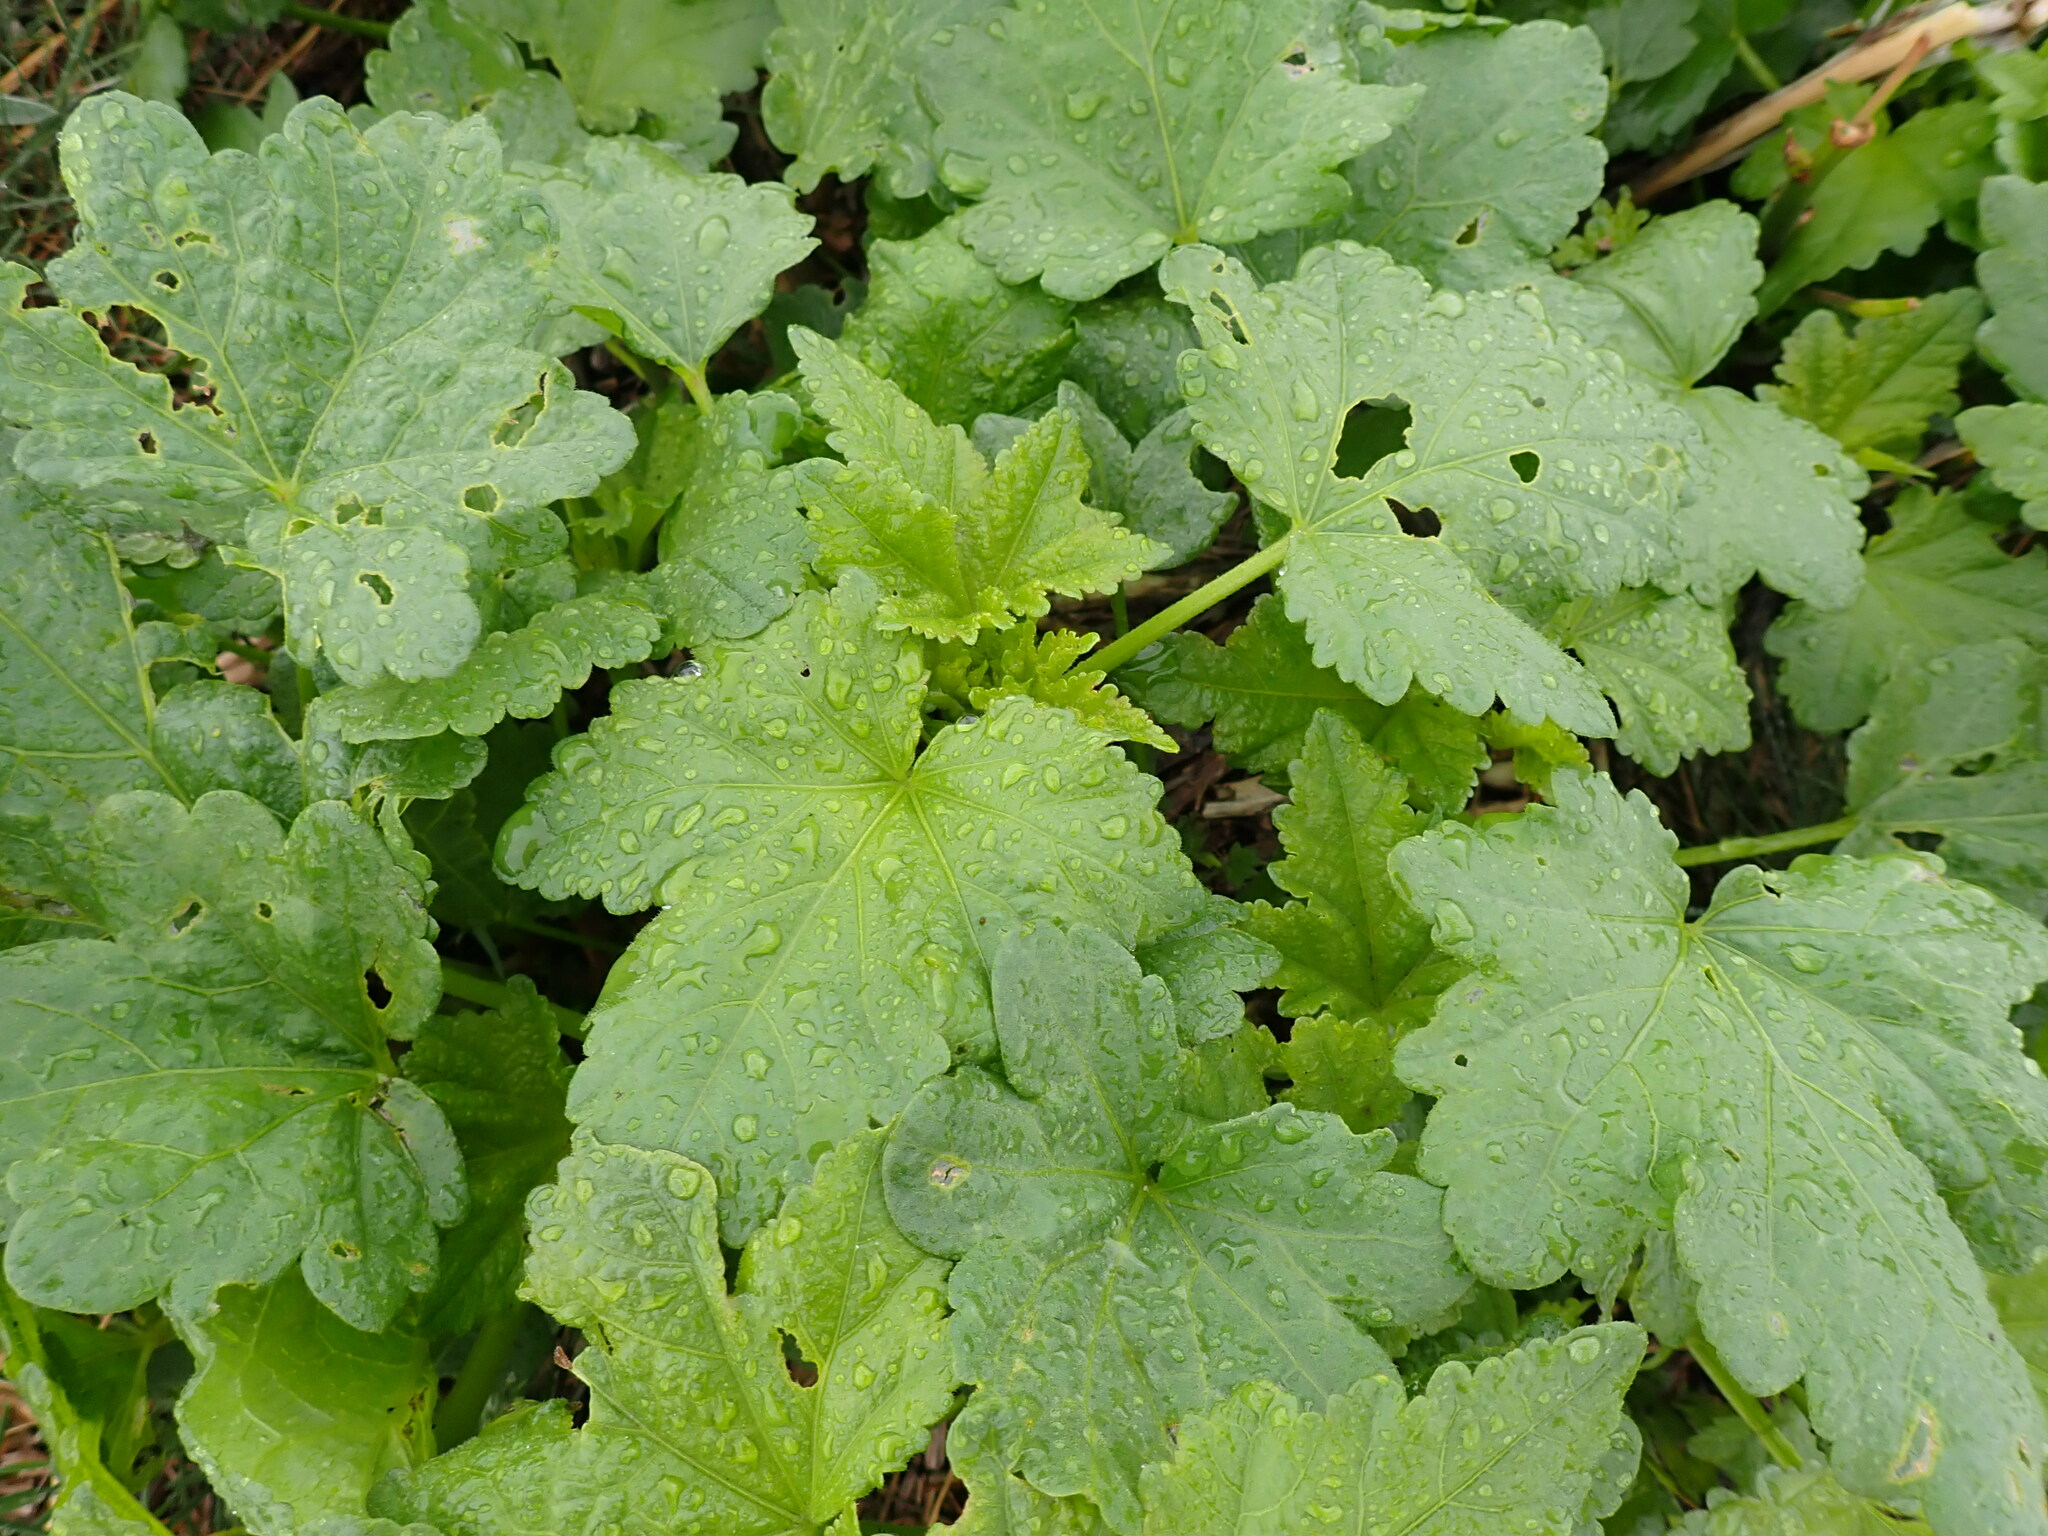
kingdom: Plantae
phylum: Tracheophyta
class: Magnoliopsida
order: Malvales
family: Malvaceae
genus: Iliamna
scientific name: Iliamna rivularis
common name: Wild hollyhock
